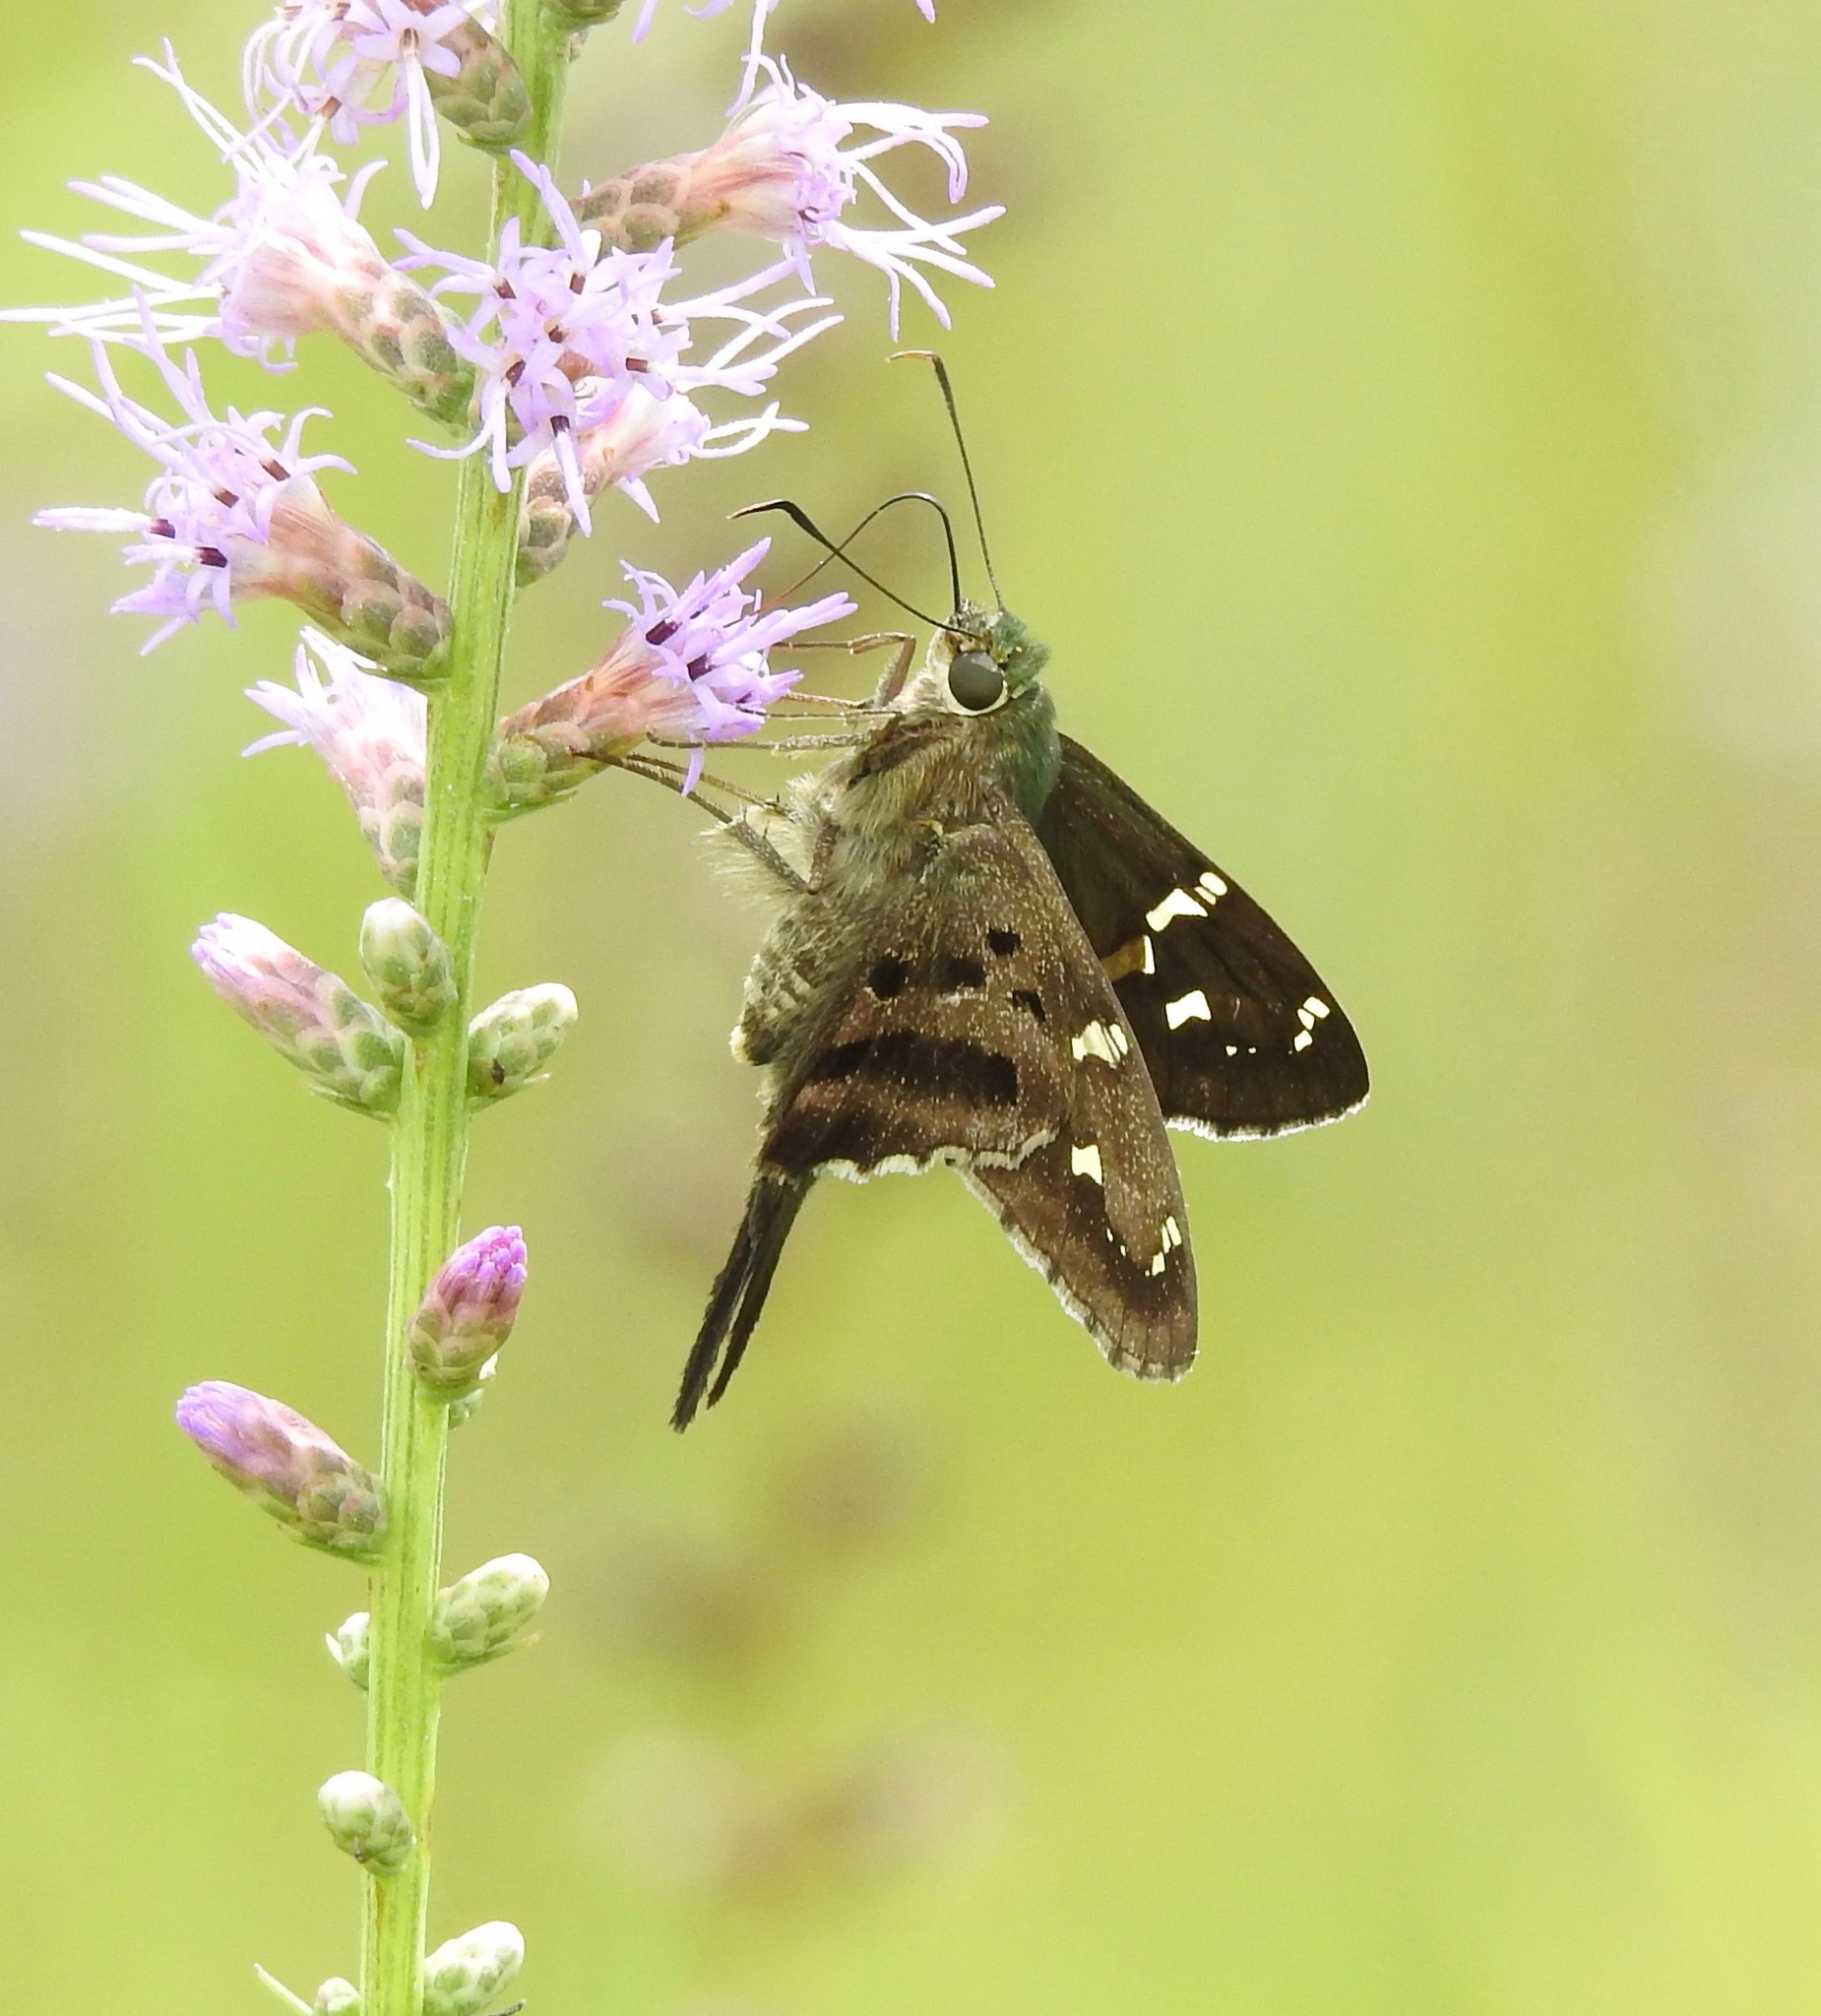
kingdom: Animalia
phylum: Arthropoda
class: Insecta
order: Lepidoptera
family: Hesperiidae
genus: Urbanus
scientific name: Urbanus proteus
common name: Long-tailed skipper
